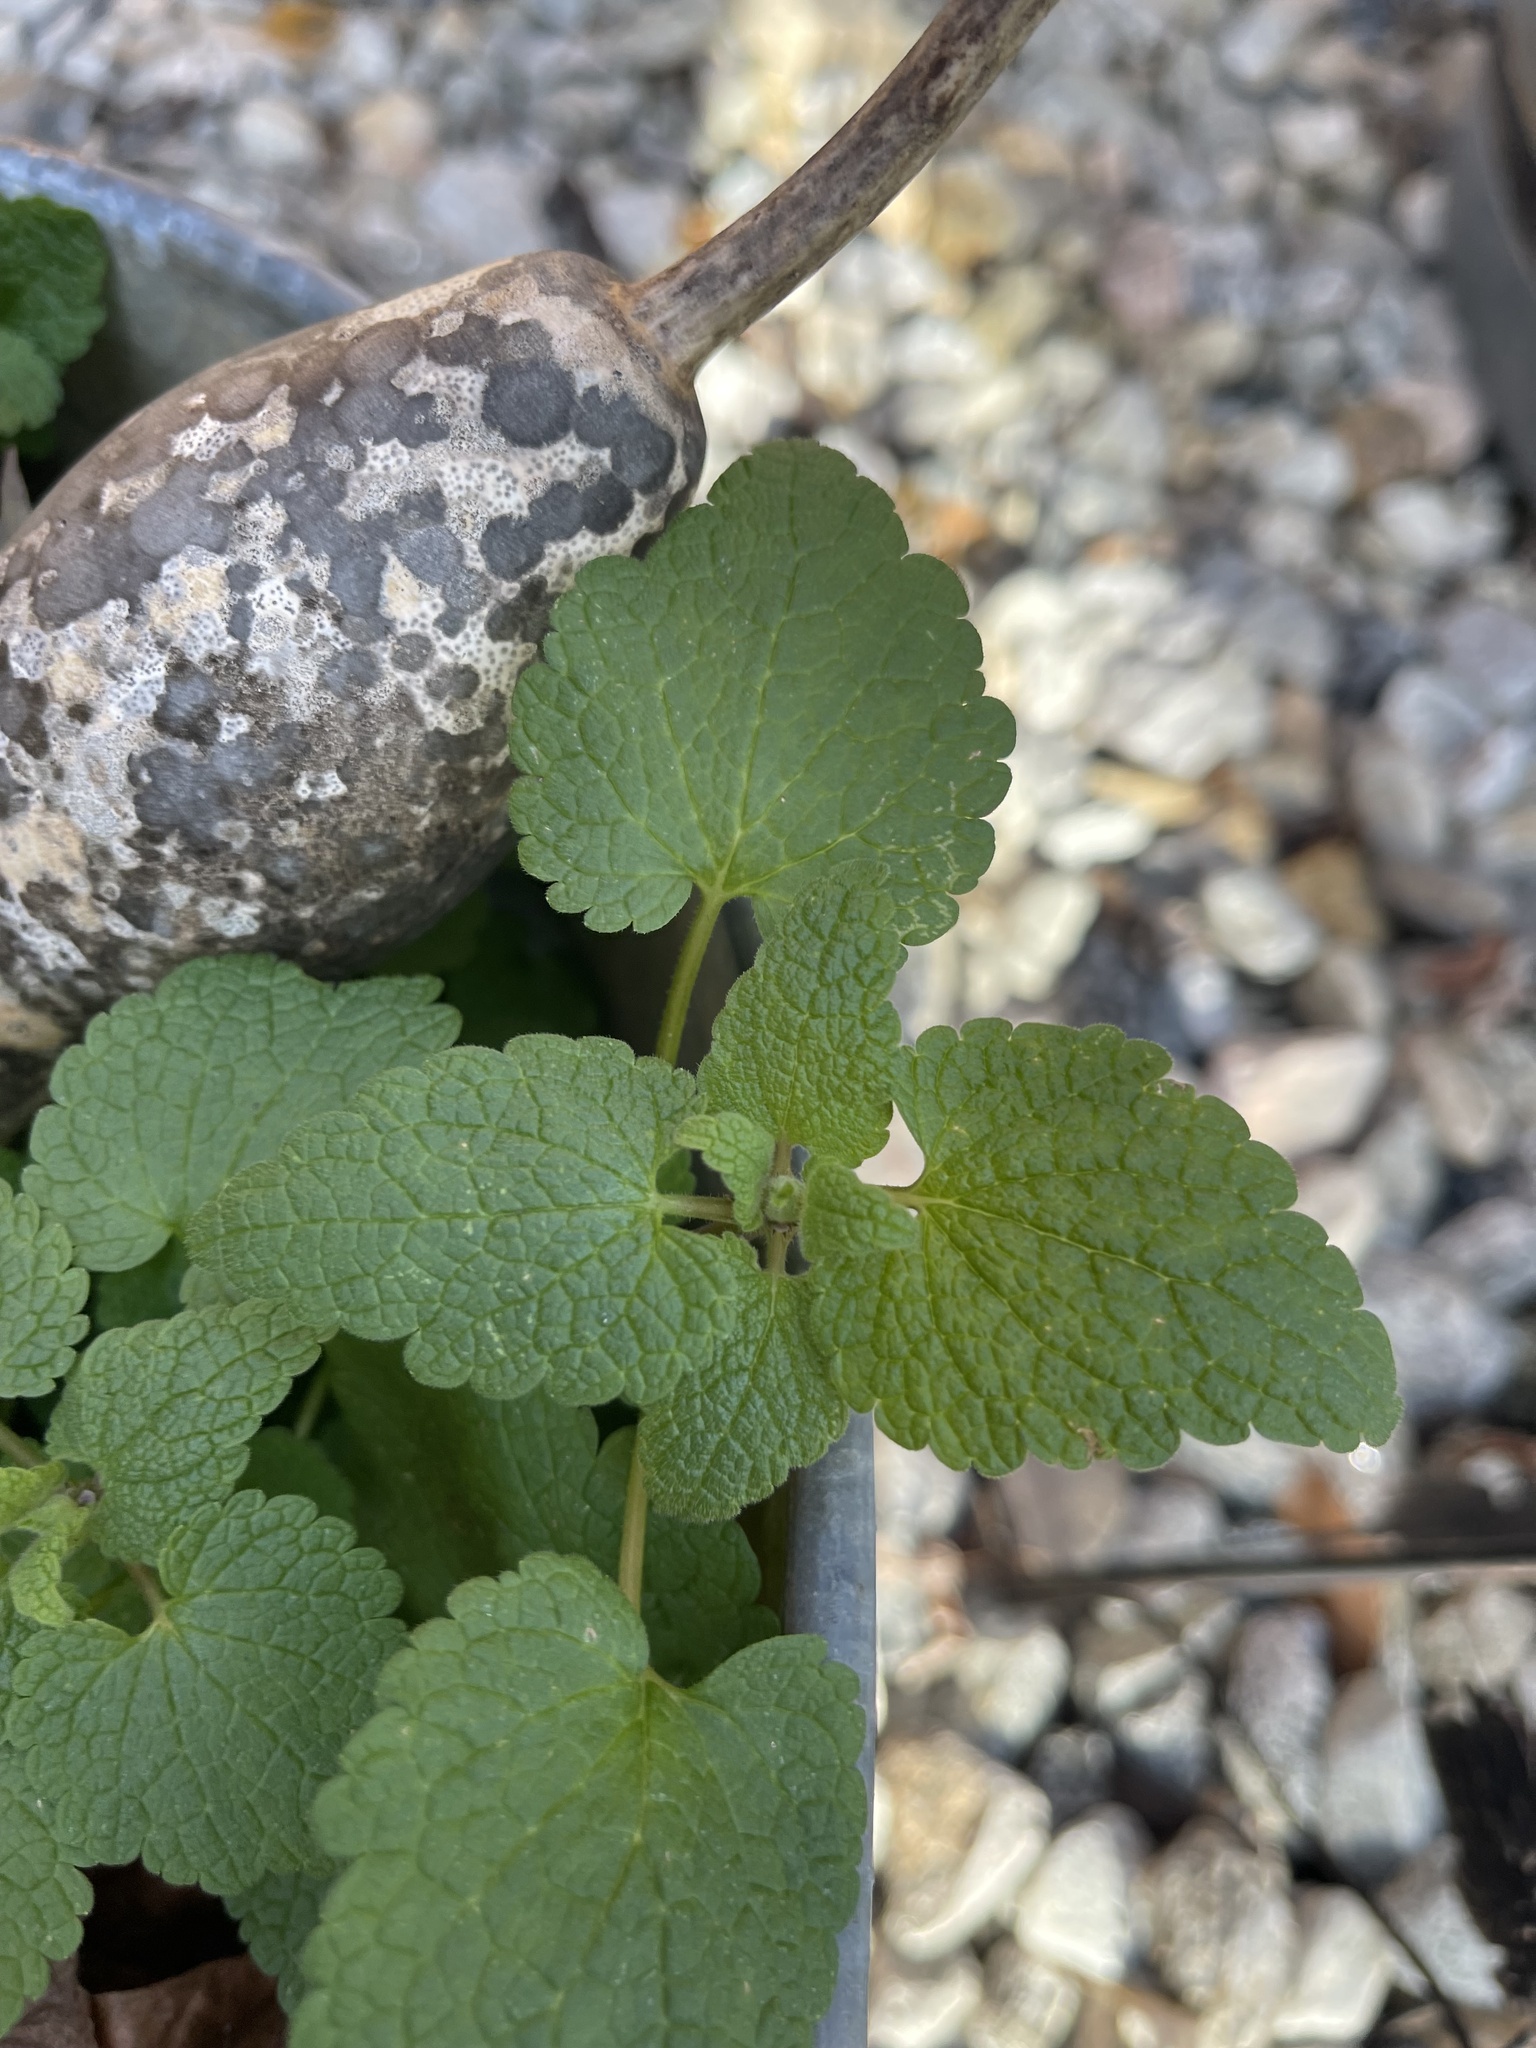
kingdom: Plantae
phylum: Tracheophyta
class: Magnoliopsida
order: Lamiales
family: Lamiaceae
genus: Lamium
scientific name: Lamium purpureum
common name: Red dead-nettle
